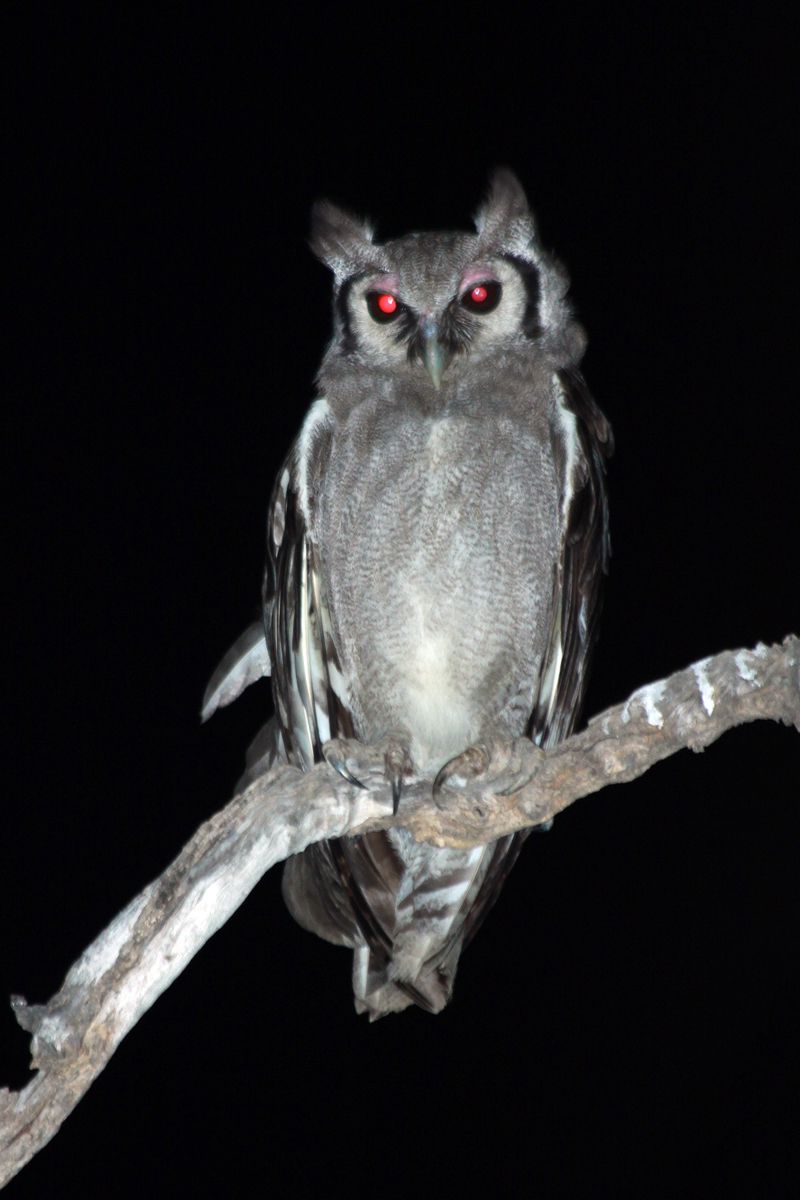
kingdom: Animalia
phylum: Chordata
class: Aves
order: Strigiformes
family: Strigidae
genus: Bubo
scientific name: Bubo lacteus
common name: Verreaux's eagle-owl
